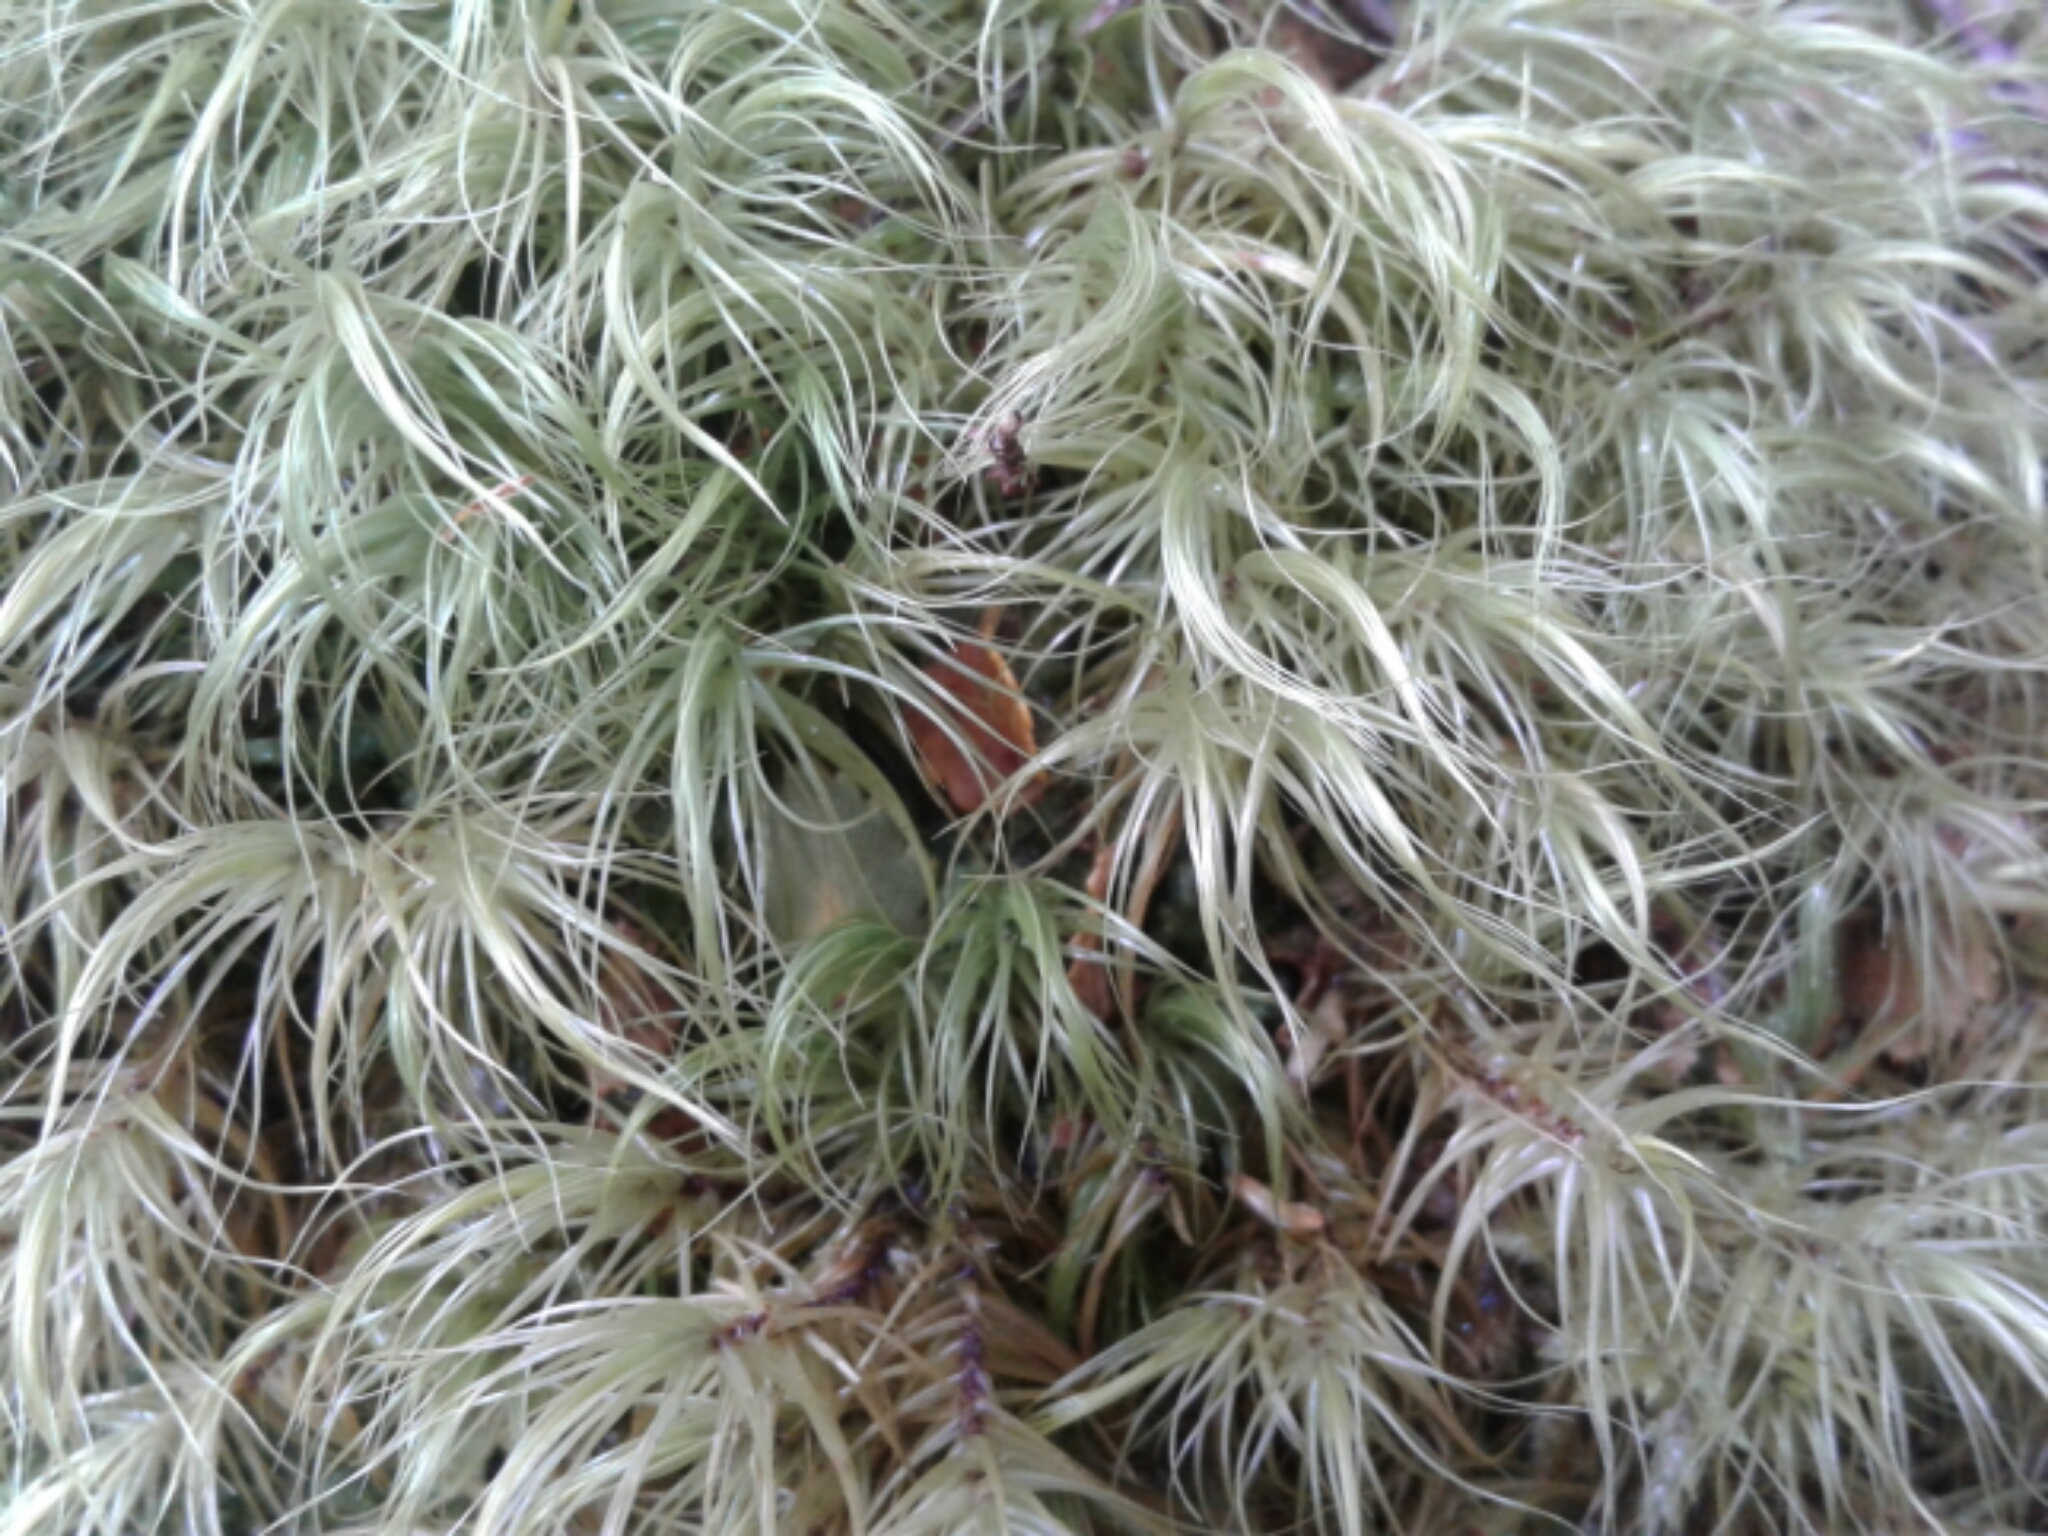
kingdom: Plantae
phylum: Bryophyta
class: Bryopsida
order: Dicranales
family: Dicranaceae
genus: Dicranoloma
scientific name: Dicranoloma
